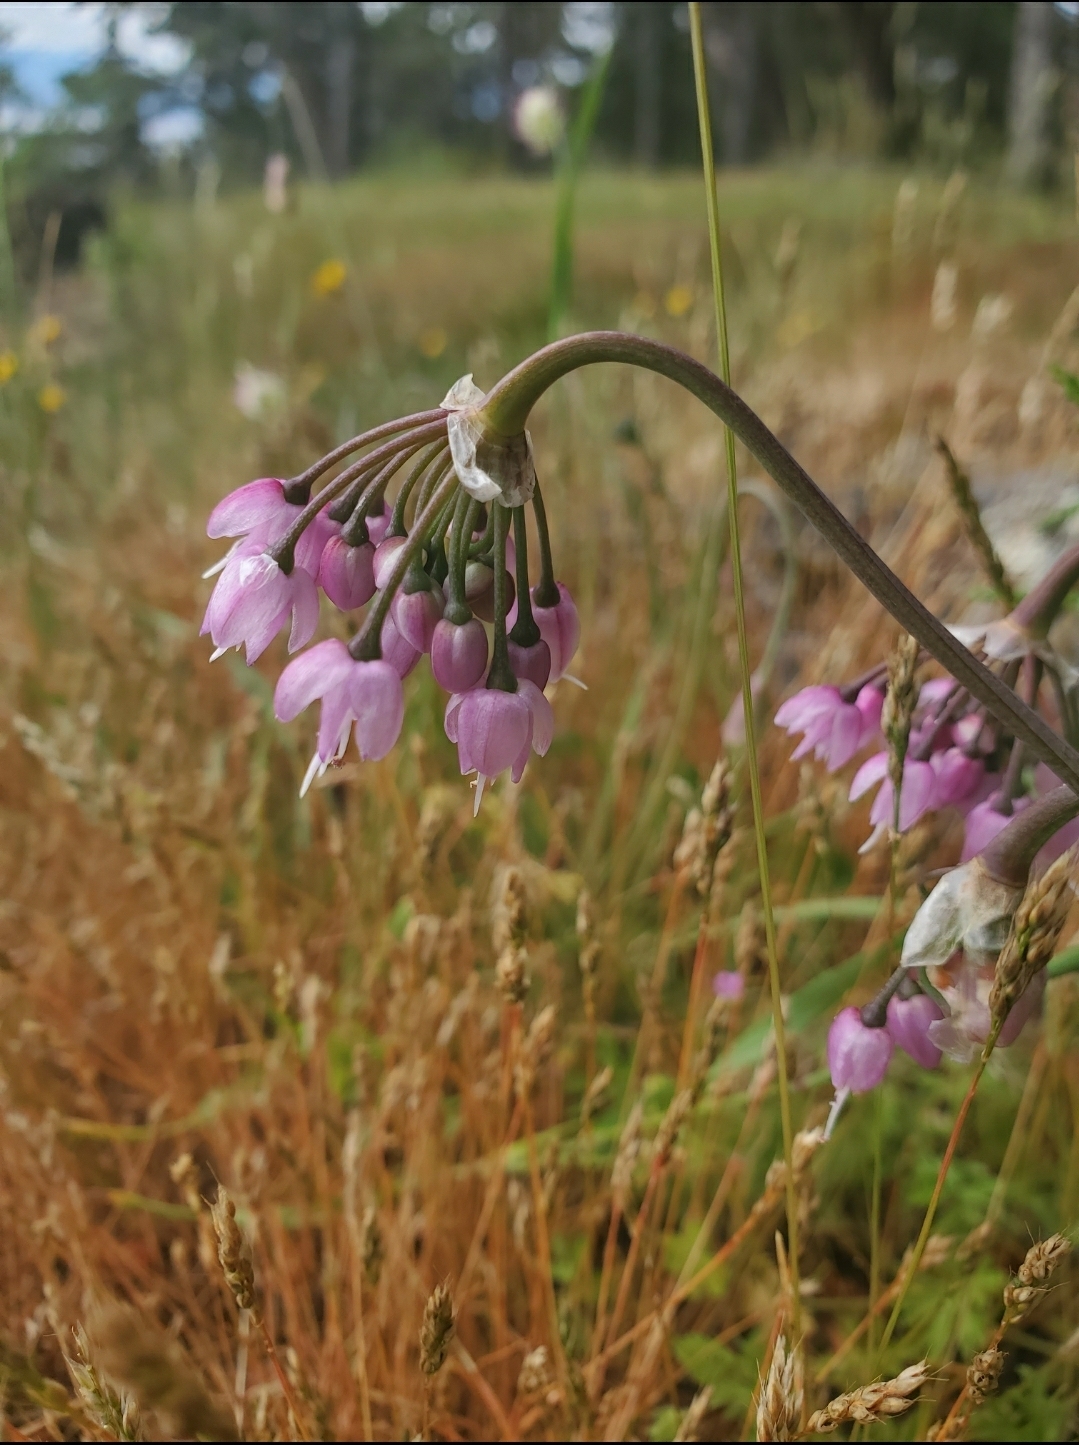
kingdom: Plantae
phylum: Tracheophyta
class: Liliopsida
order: Asparagales
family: Amaryllidaceae
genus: Allium
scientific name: Allium cernuum
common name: Nodding onion
